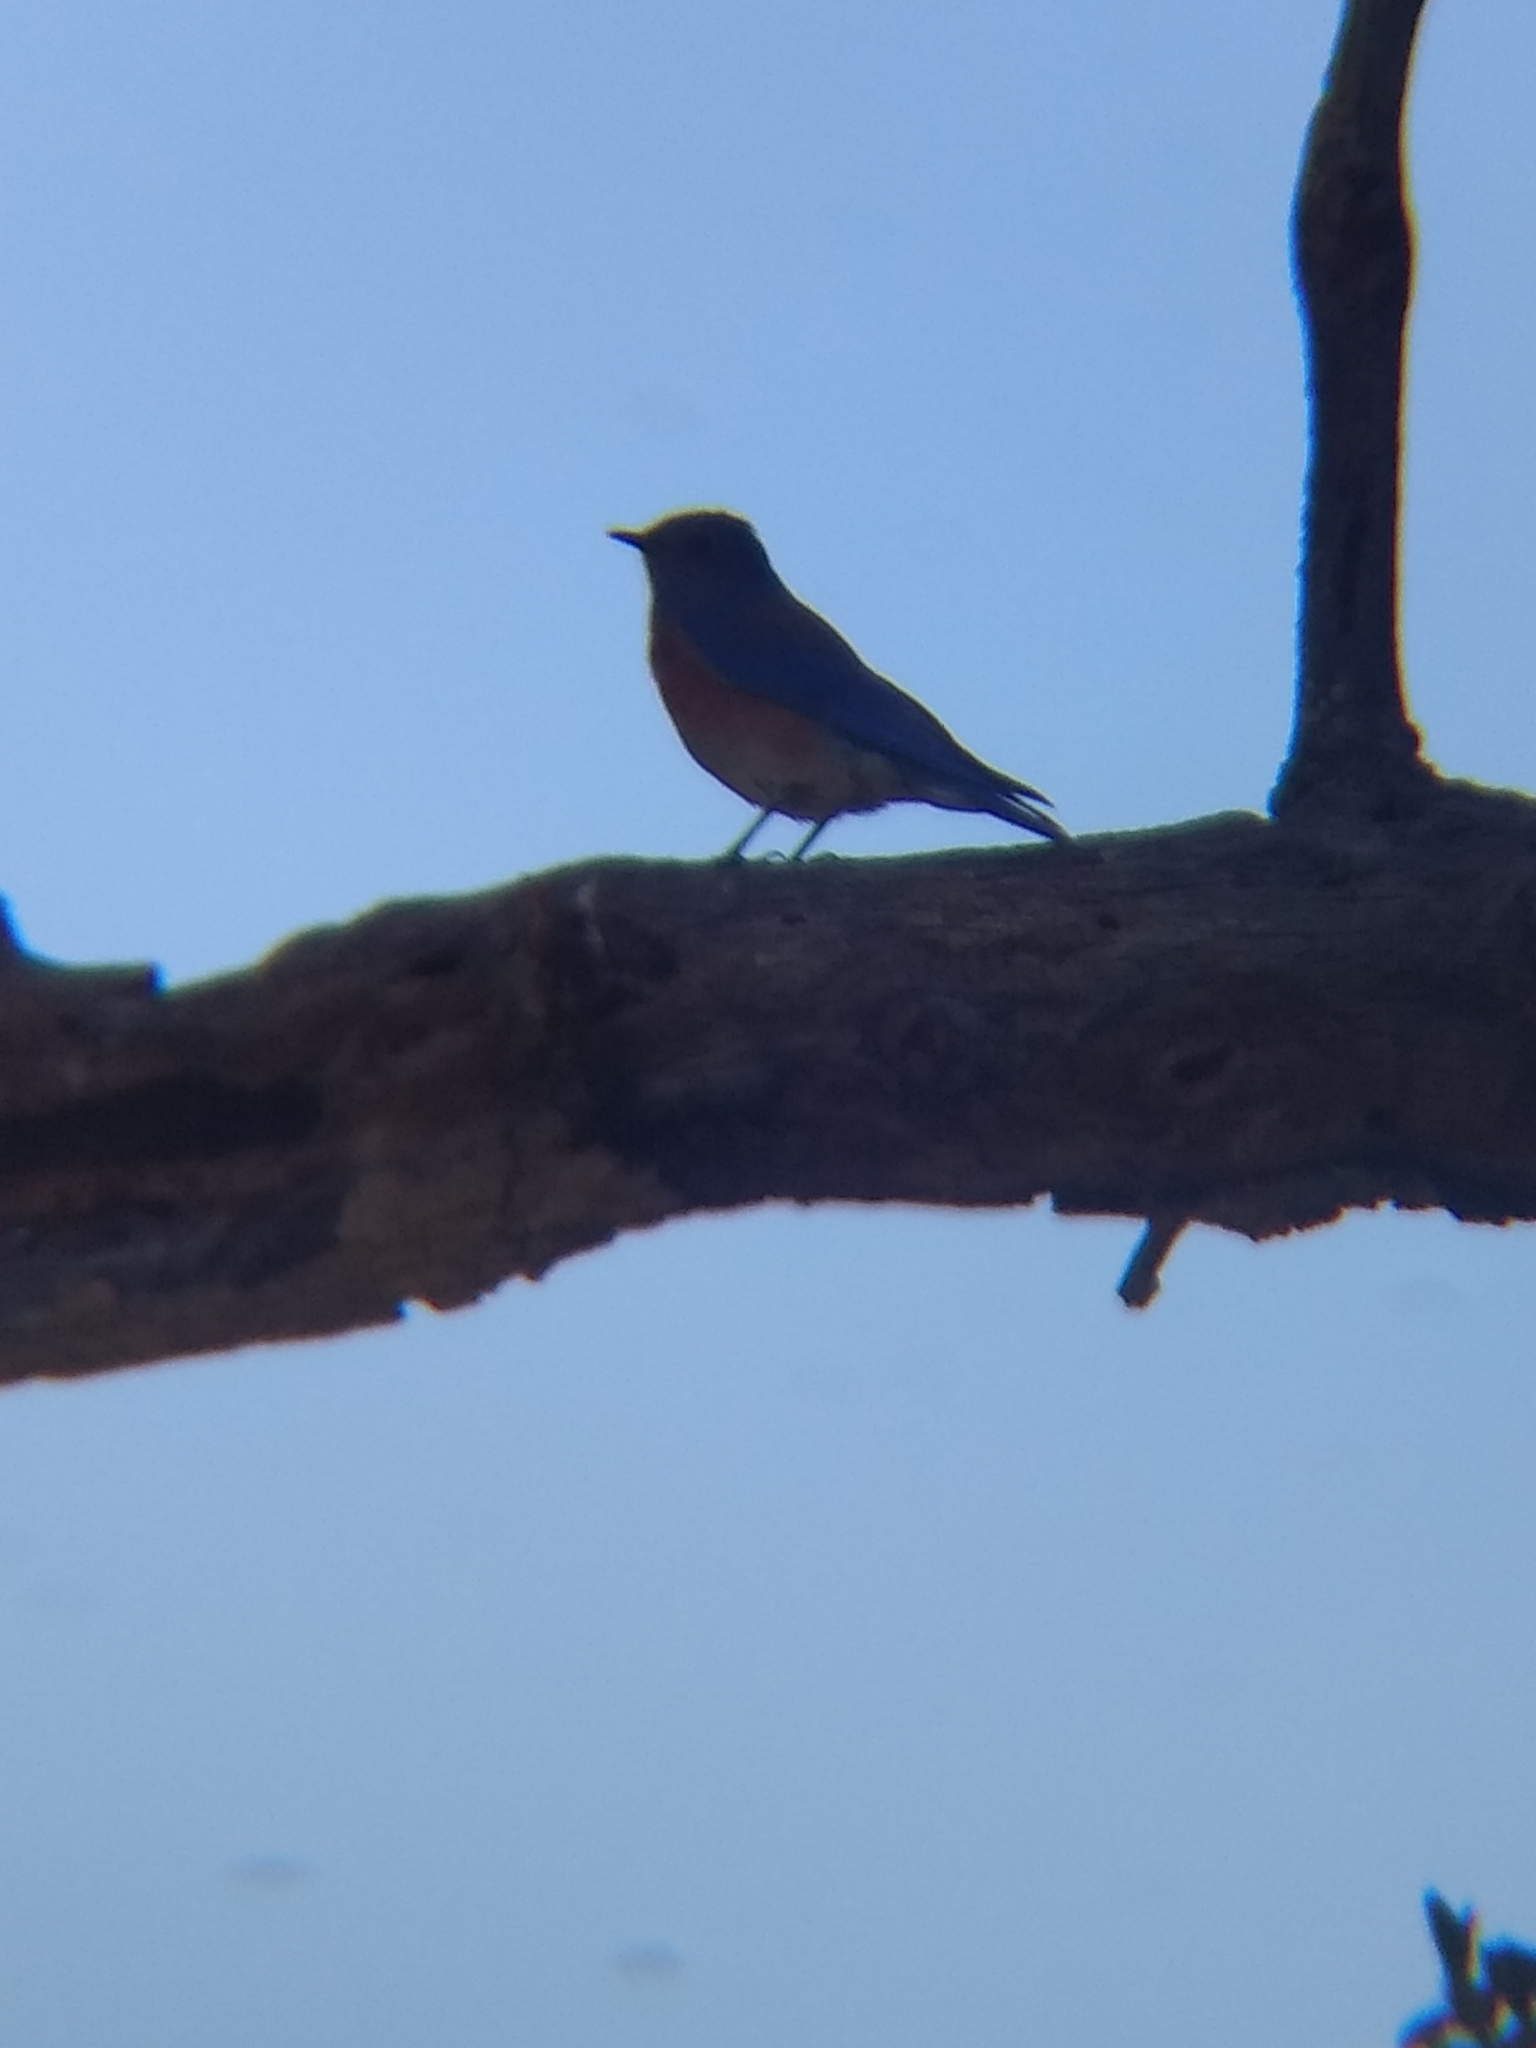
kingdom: Animalia
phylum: Chordata
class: Aves
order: Passeriformes
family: Turdidae
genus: Sialia
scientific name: Sialia mexicana
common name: Western bluebird
